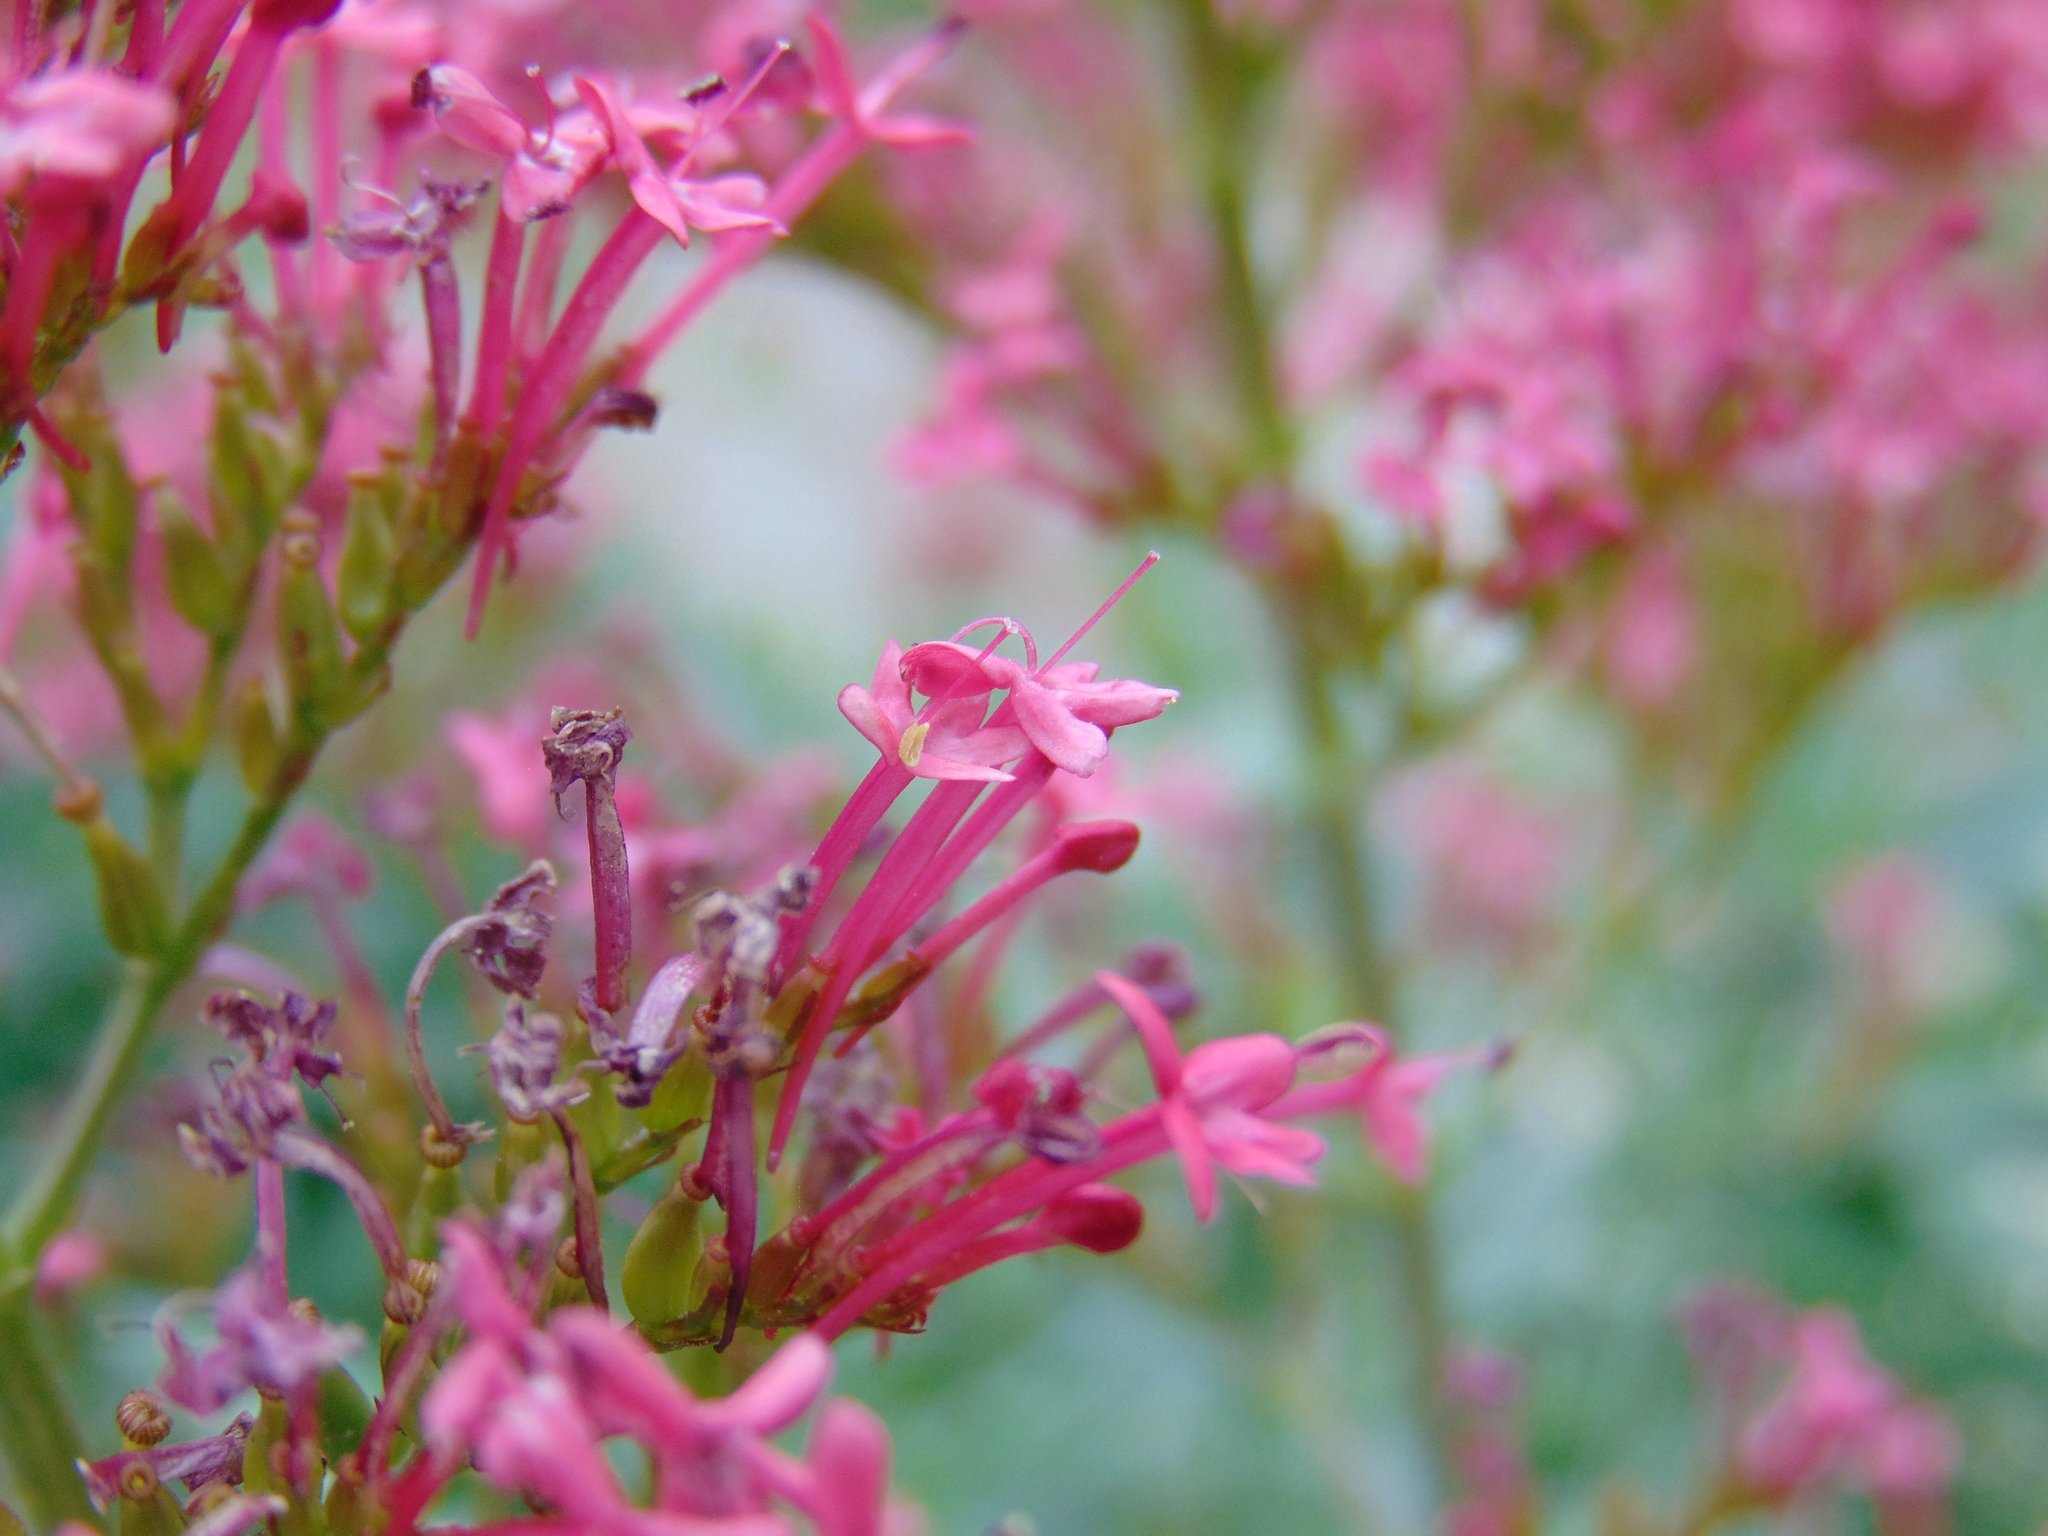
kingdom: Plantae
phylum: Tracheophyta
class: Magnoliopsida
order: Dipsacales
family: Caprifoliaceae
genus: Centranthus
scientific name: Centranthus ruber
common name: Red valerian
